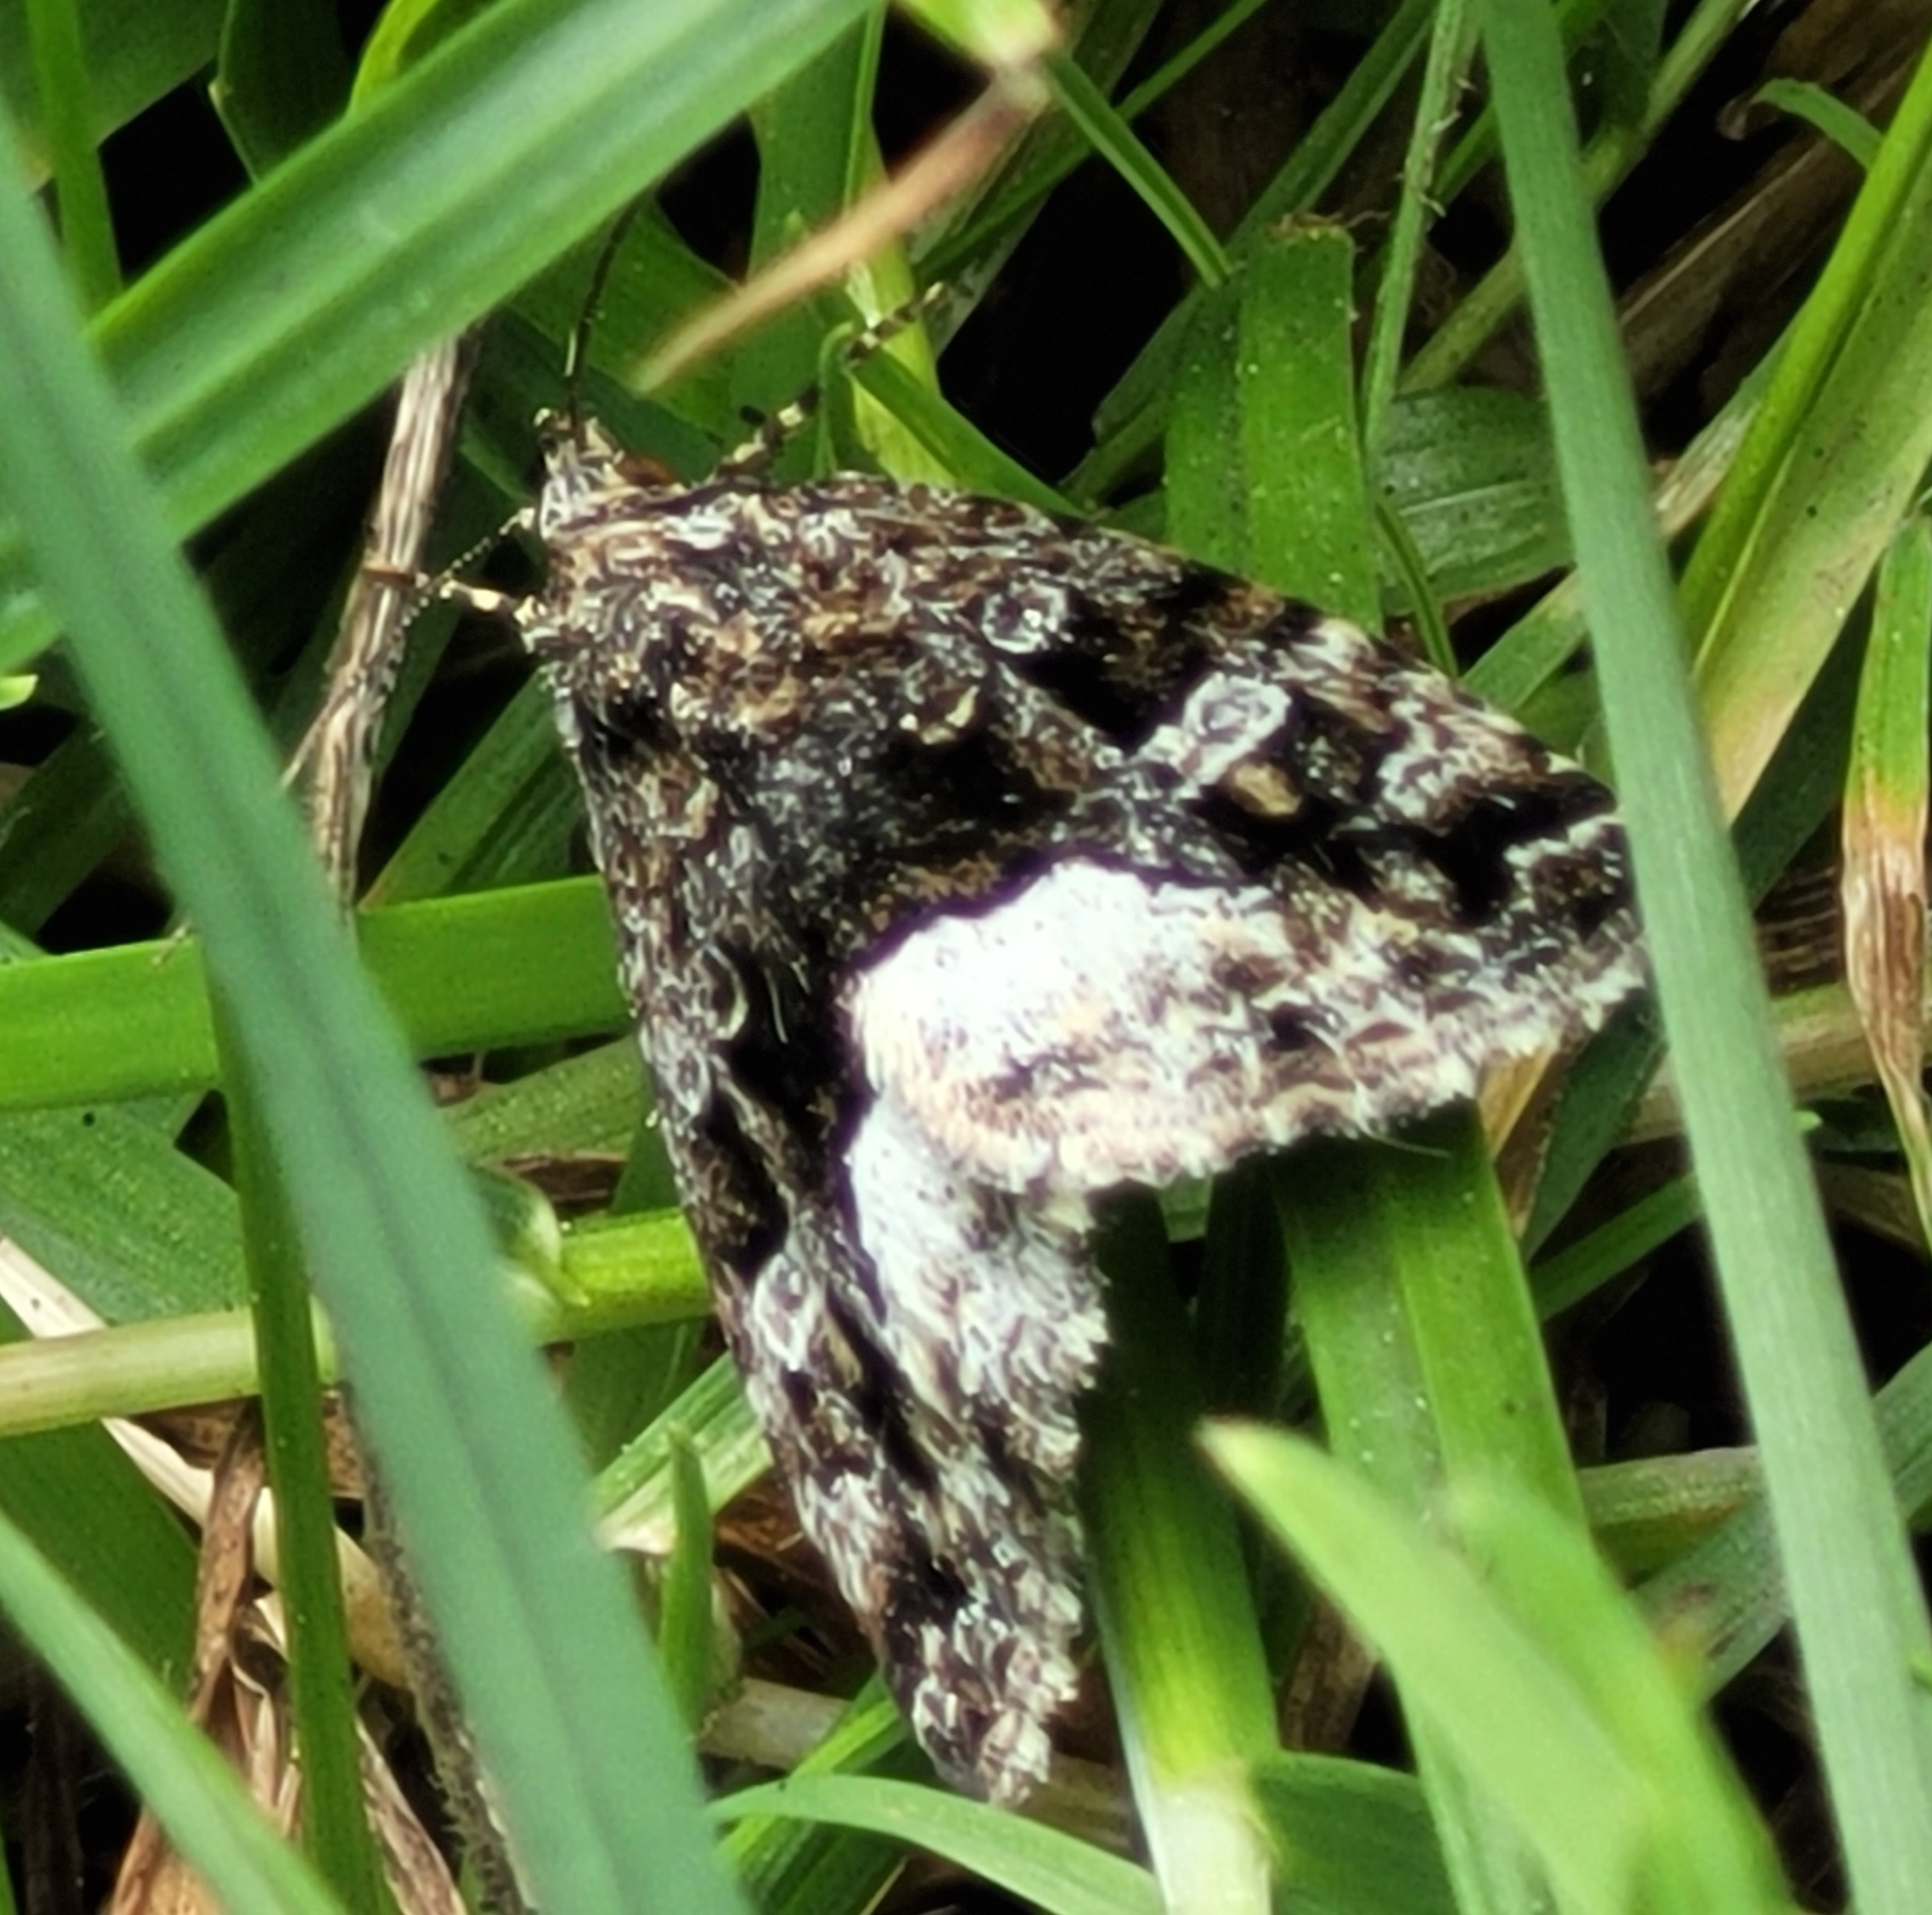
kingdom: Animalia
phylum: Arthropoda
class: Insecta
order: Lepidoptera
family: Noctuidae
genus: Deltote
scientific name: Deltote pygarga
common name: Marbled white spot
